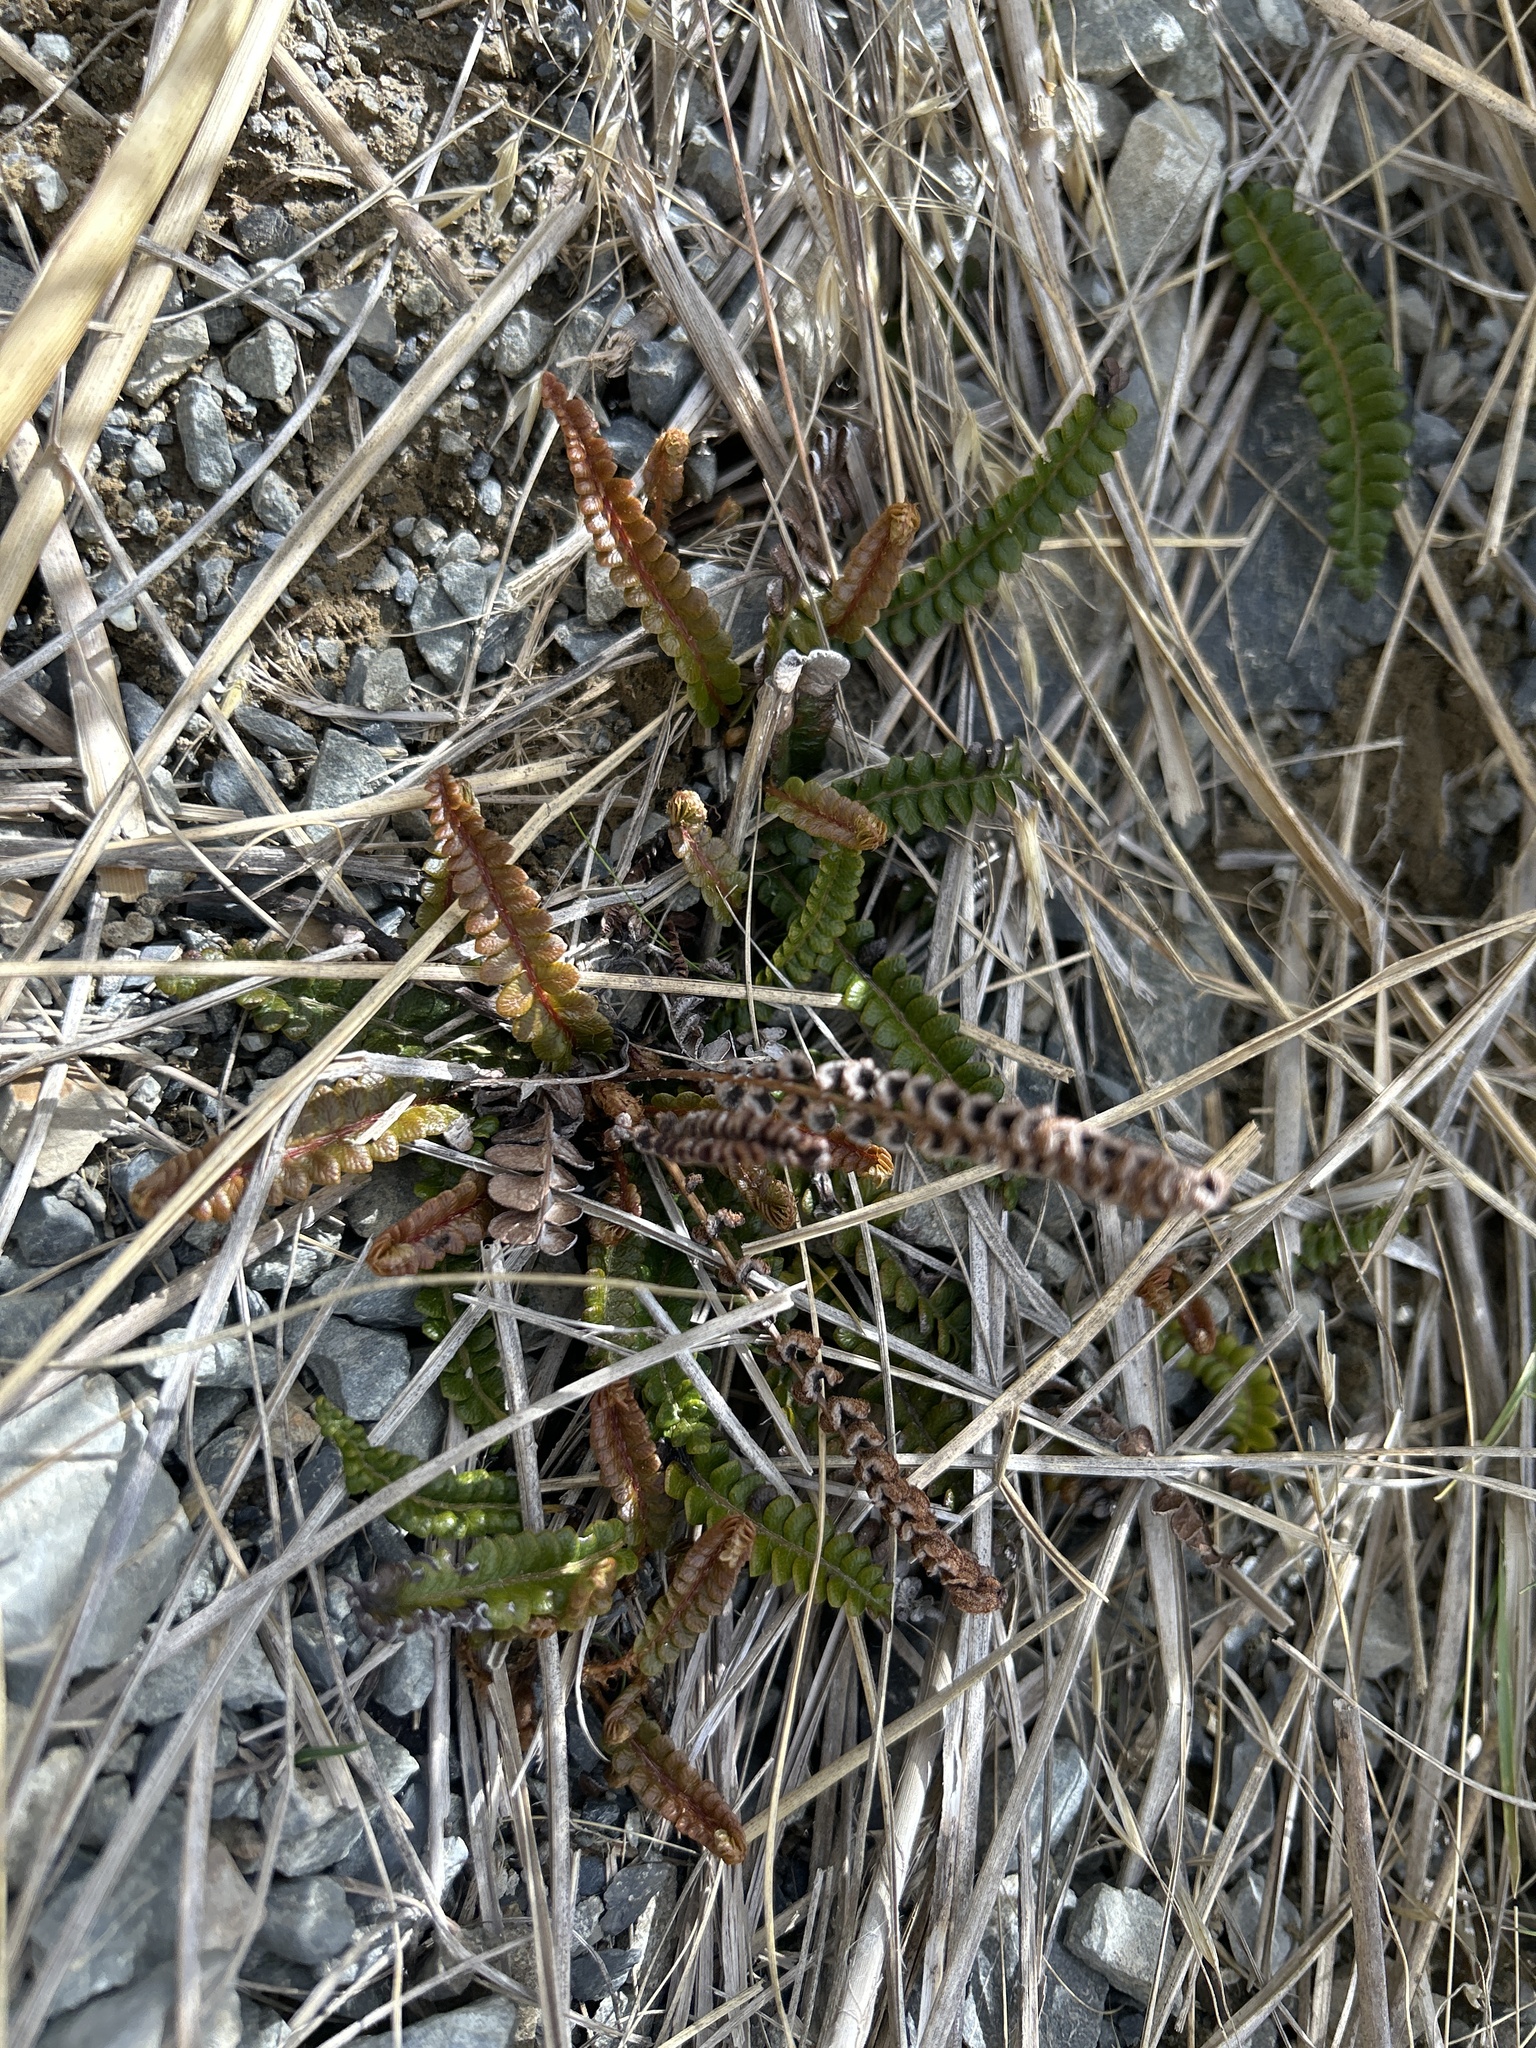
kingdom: Plantae
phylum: Tracheophyta
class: Polypodiopsida
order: Polypodiales
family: Blechnaceae
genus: Austroblechnum
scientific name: Austroblechnum penna-marina
